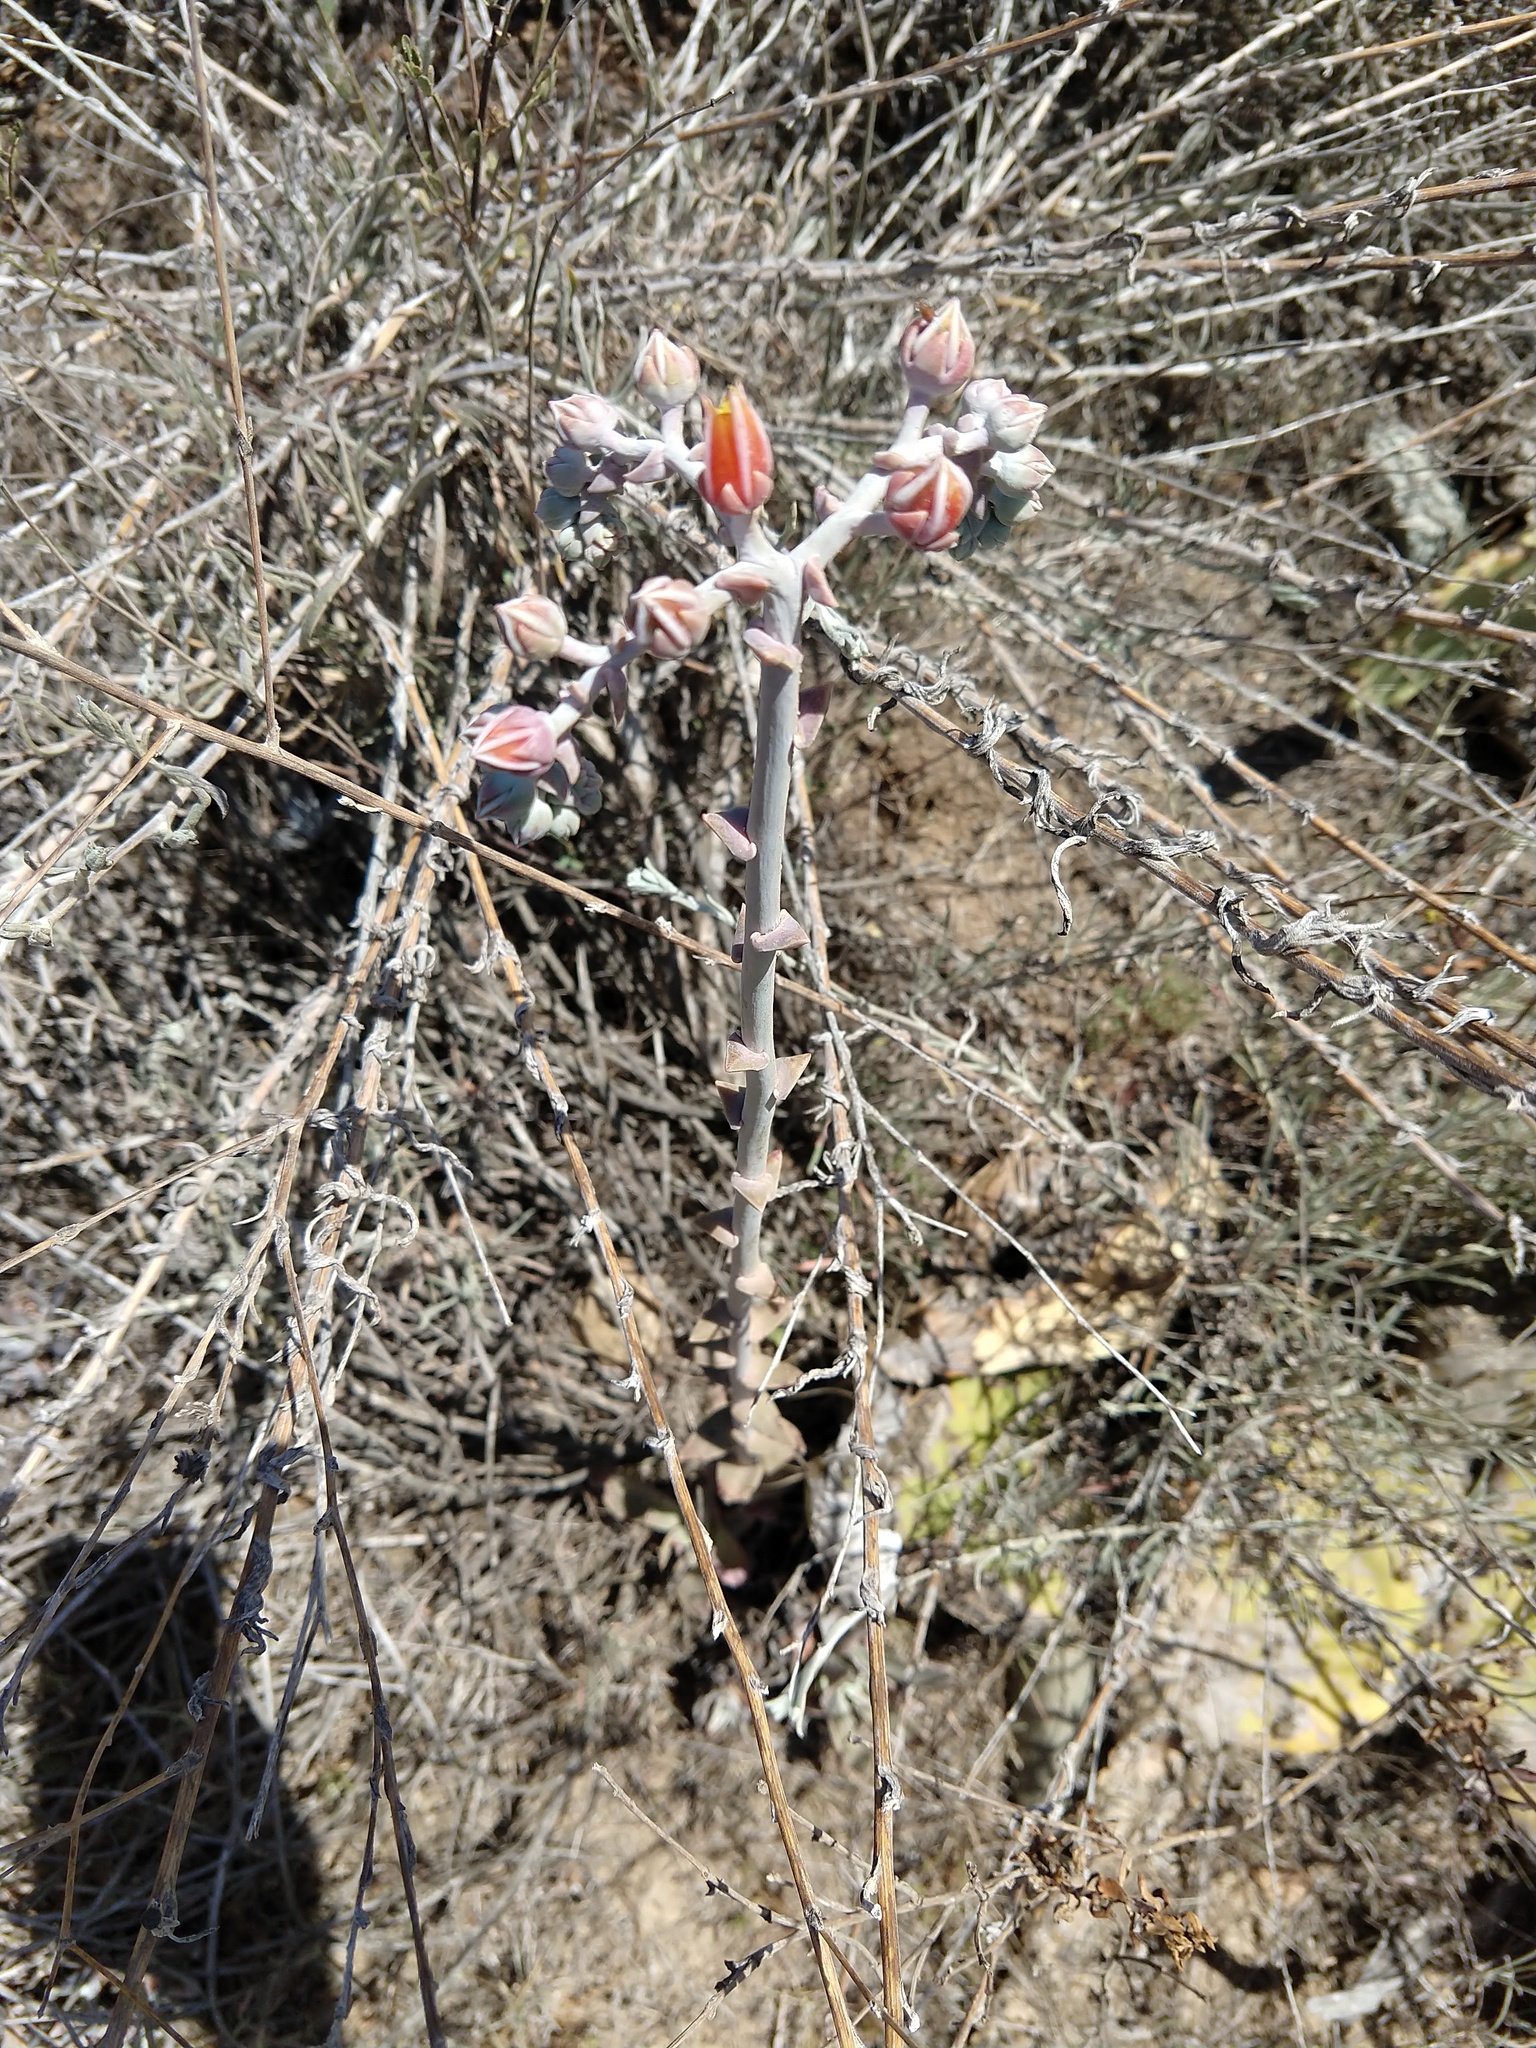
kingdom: Plantae
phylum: Tracheophyta
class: Magnoliopsida
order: Saxifragales
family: Crassulaceae
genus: Dudleya
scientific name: Dudleya lanceolata
